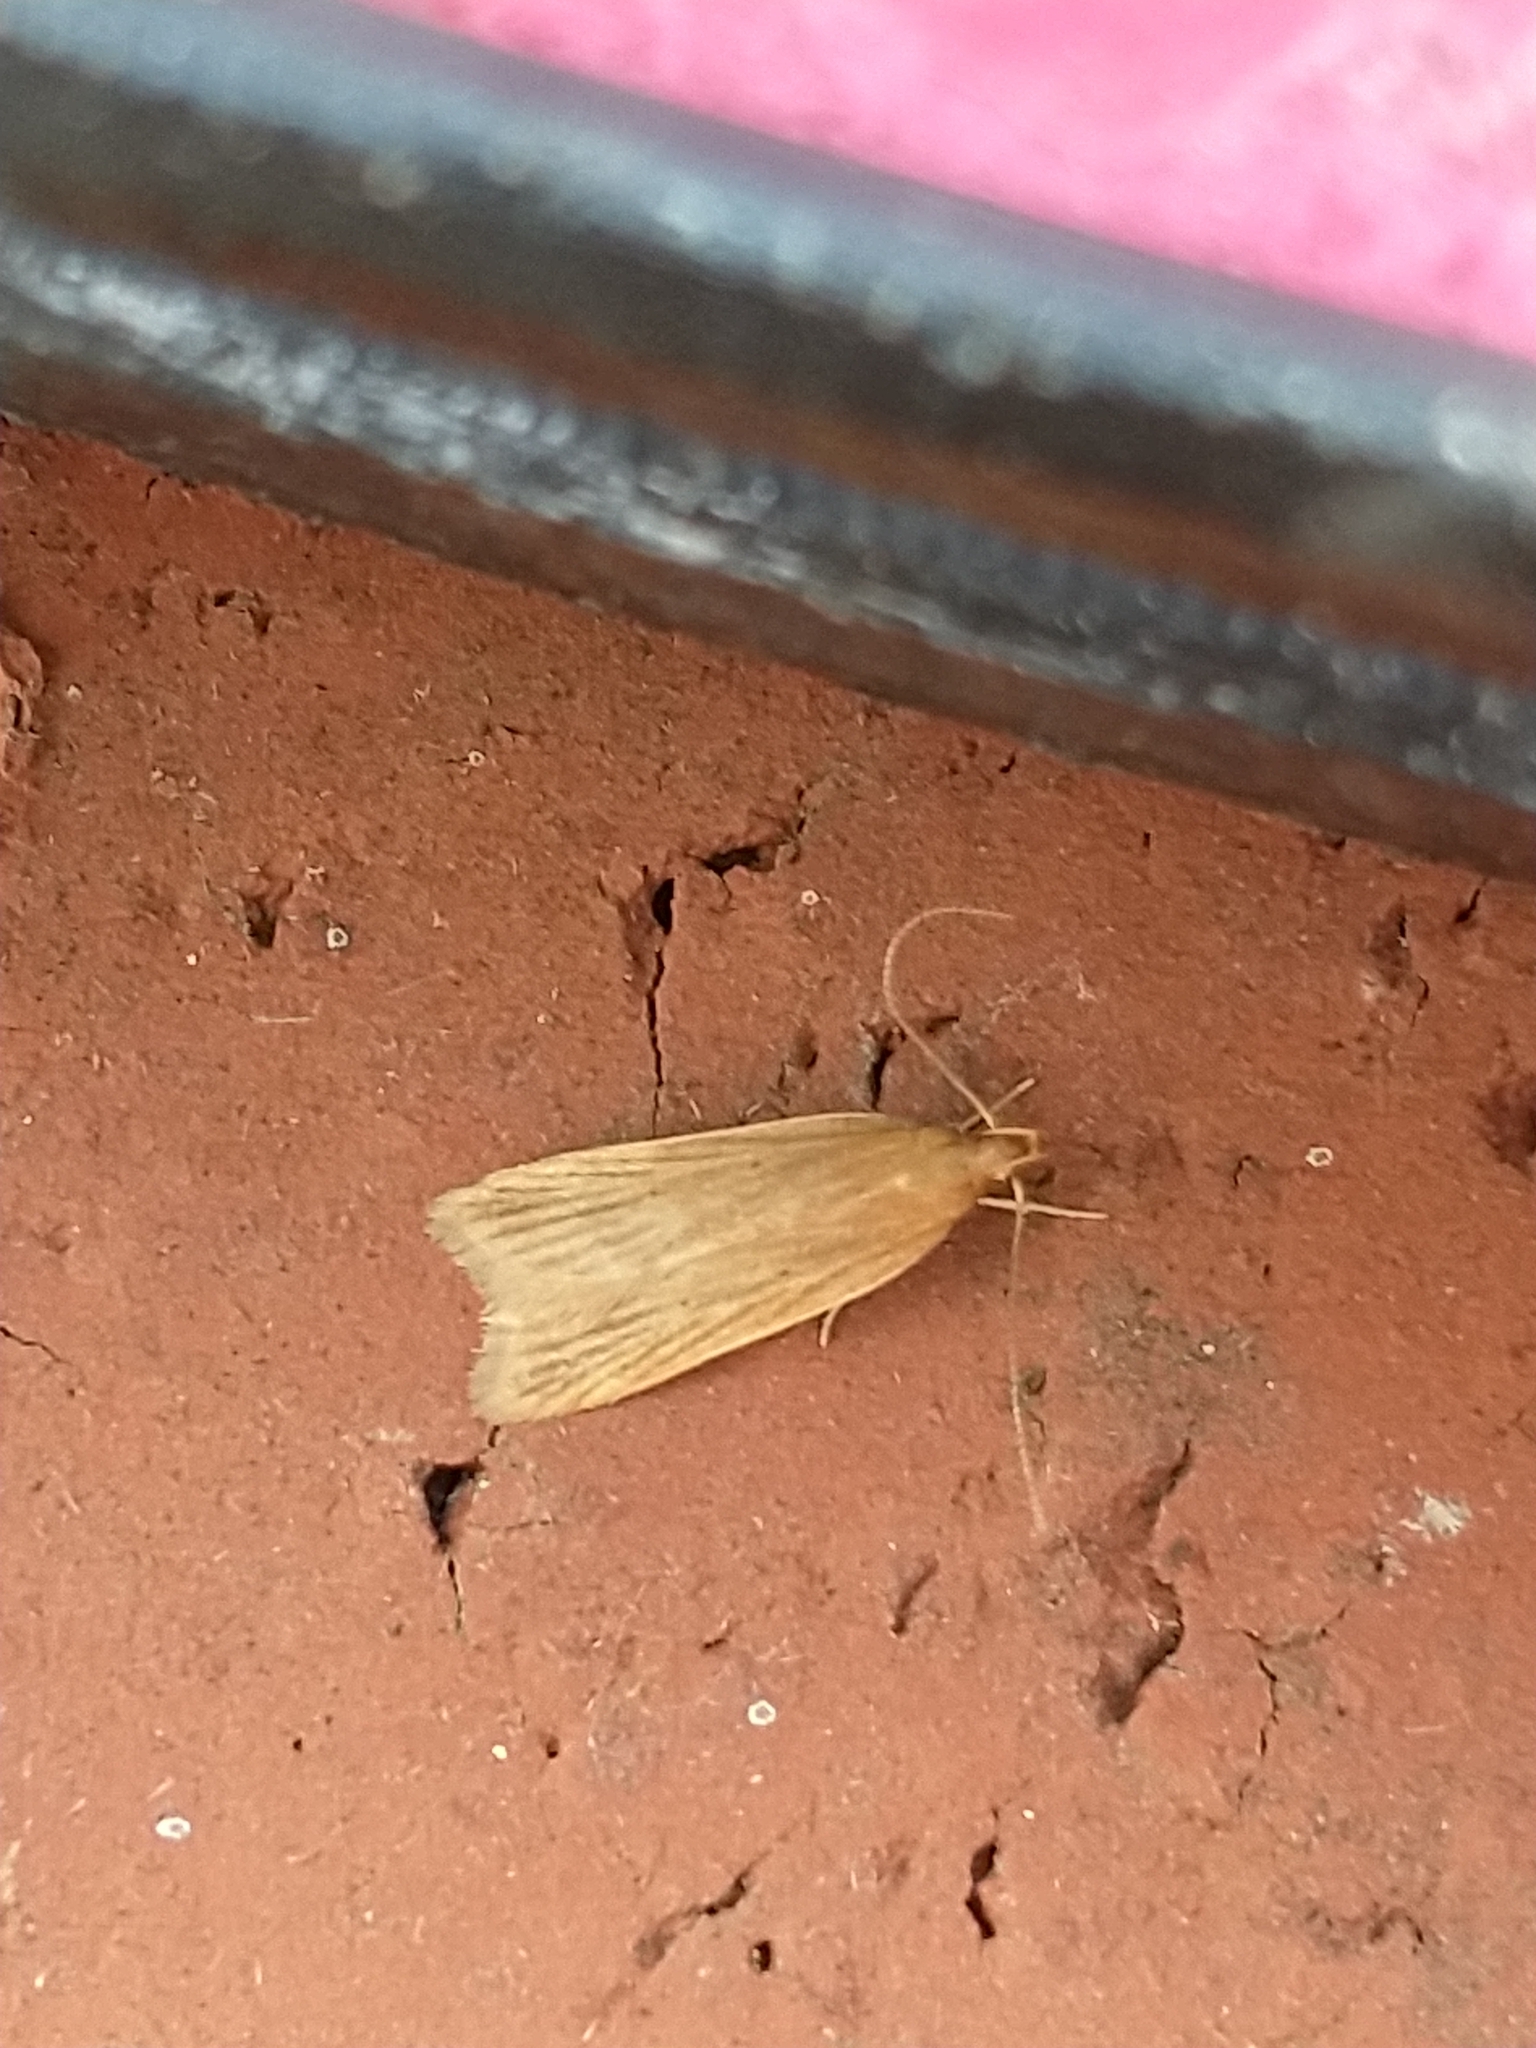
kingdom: Animalia
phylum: Arthropoda
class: Insecta
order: Lepidoptera
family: Gelechiidae
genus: Helcystogramma
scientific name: Helcystogramma rufescens
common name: Orange crest
